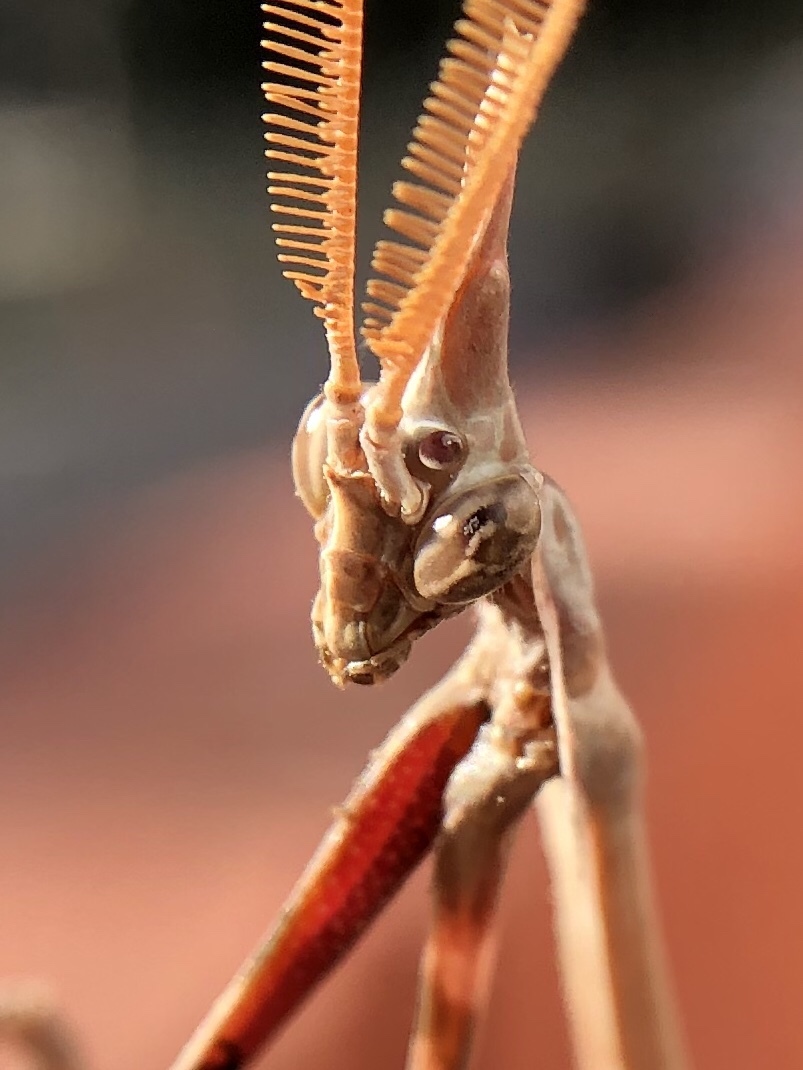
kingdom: Animalia
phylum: Arthropoda
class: Insecta
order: Mantodea
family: Empusidae
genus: Empusa
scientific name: Empusa pennata
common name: Conehead mantis
